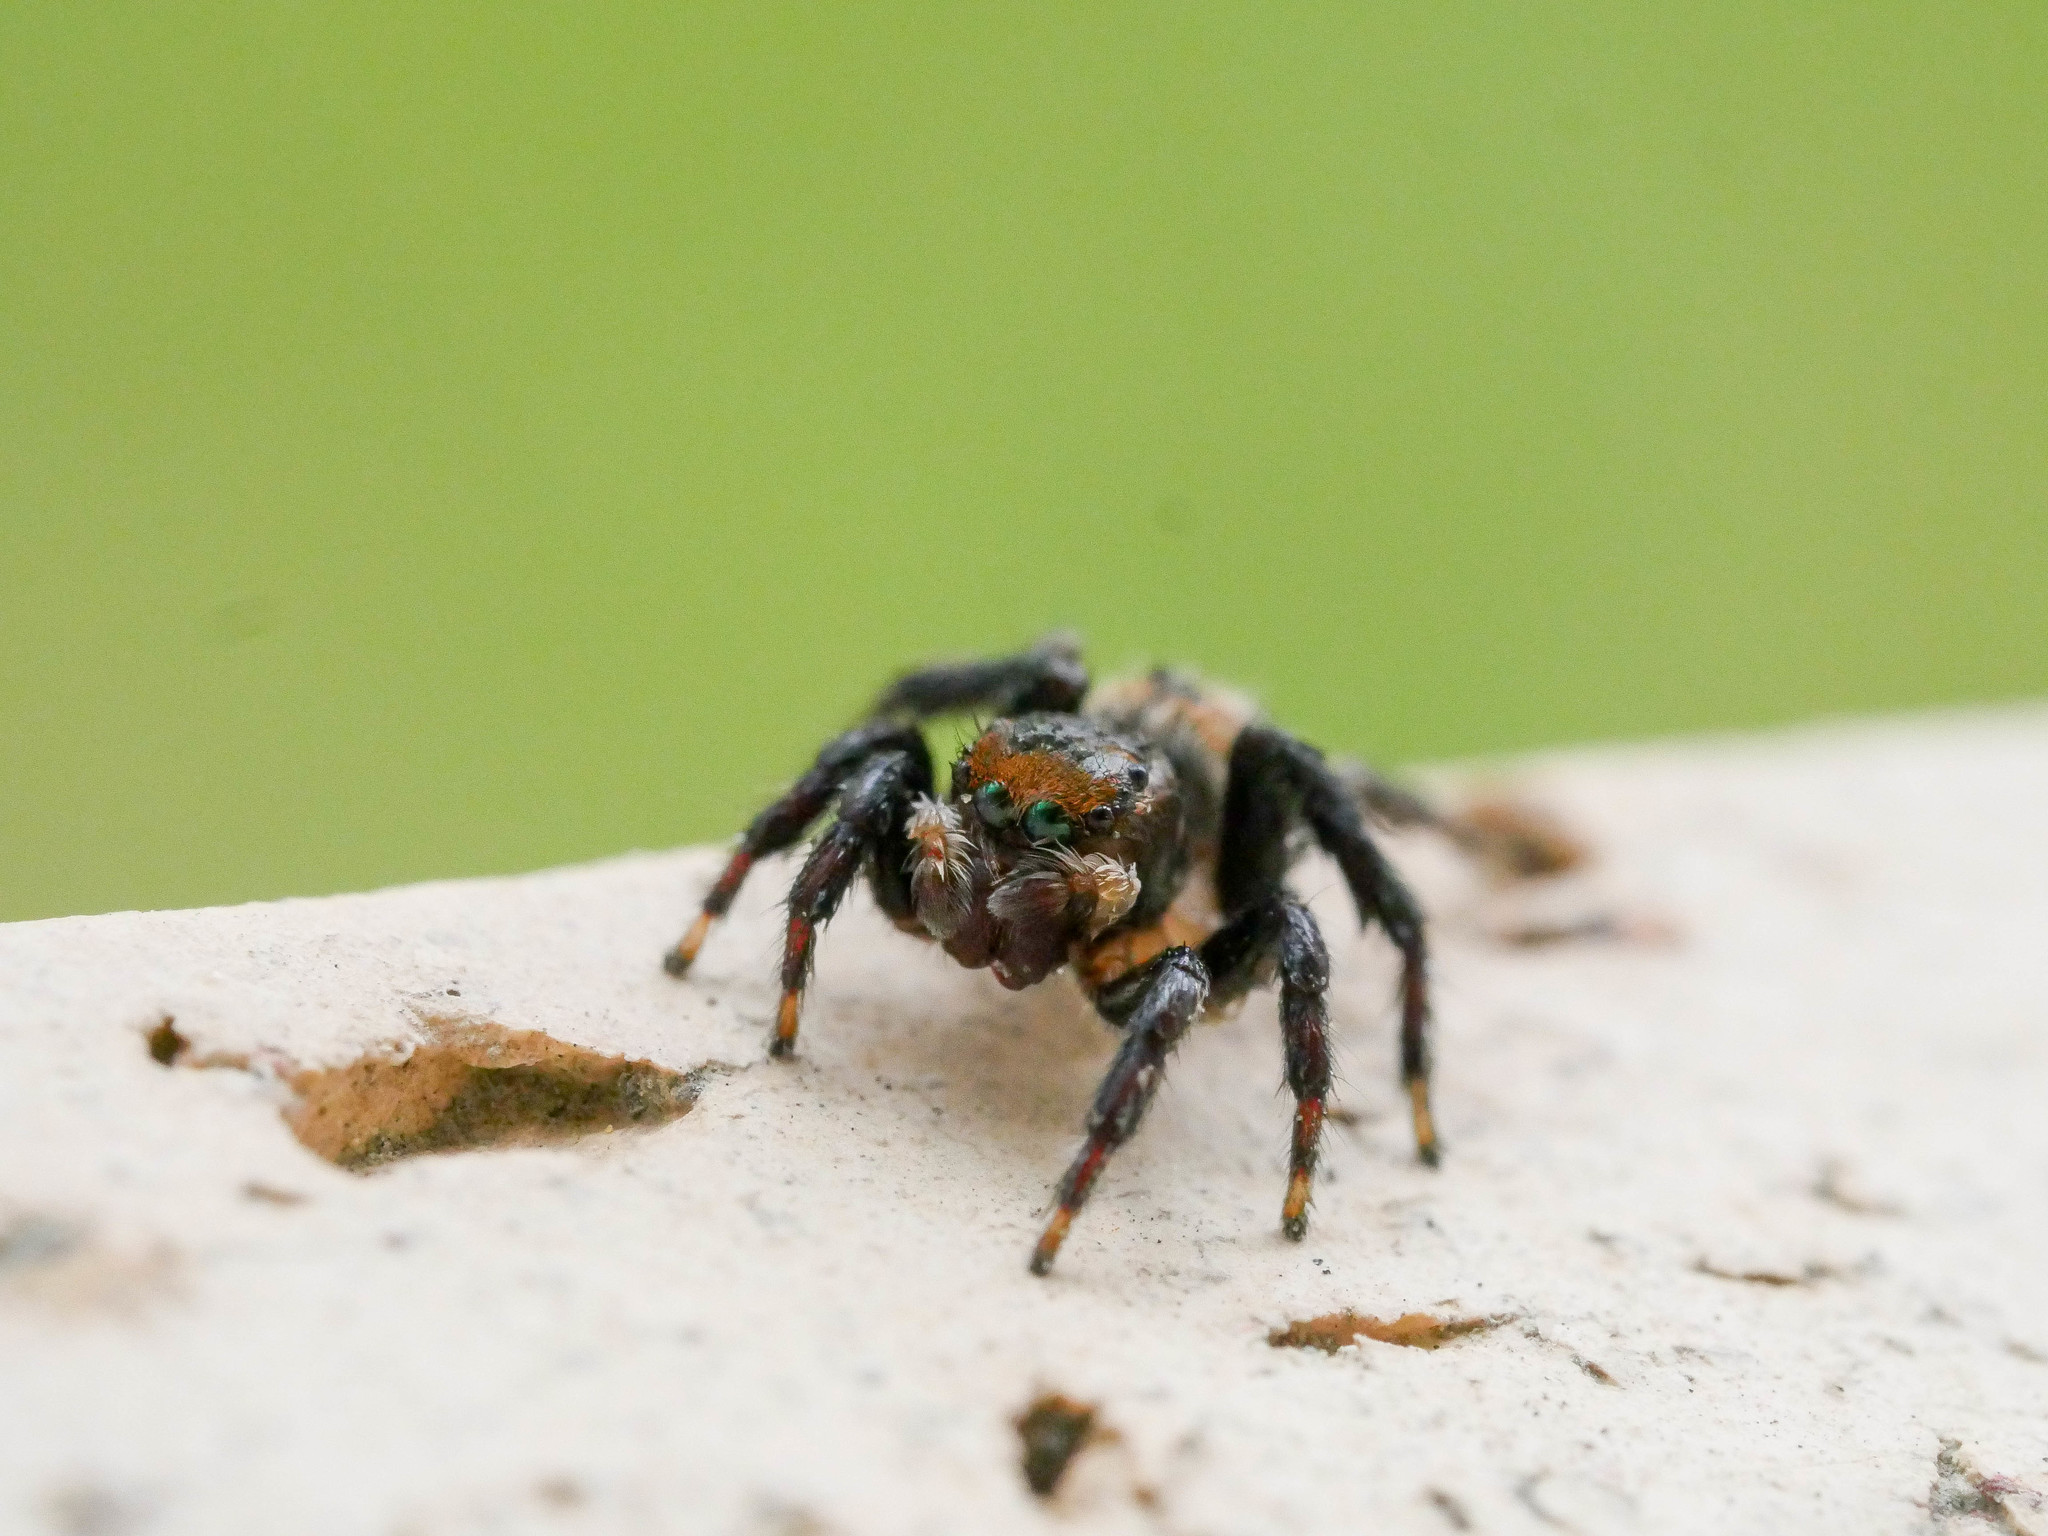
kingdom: Animalia
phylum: Arthropoda
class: Arachnida
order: Araneae
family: Salticidae
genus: Maratus
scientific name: Maratus griseus
